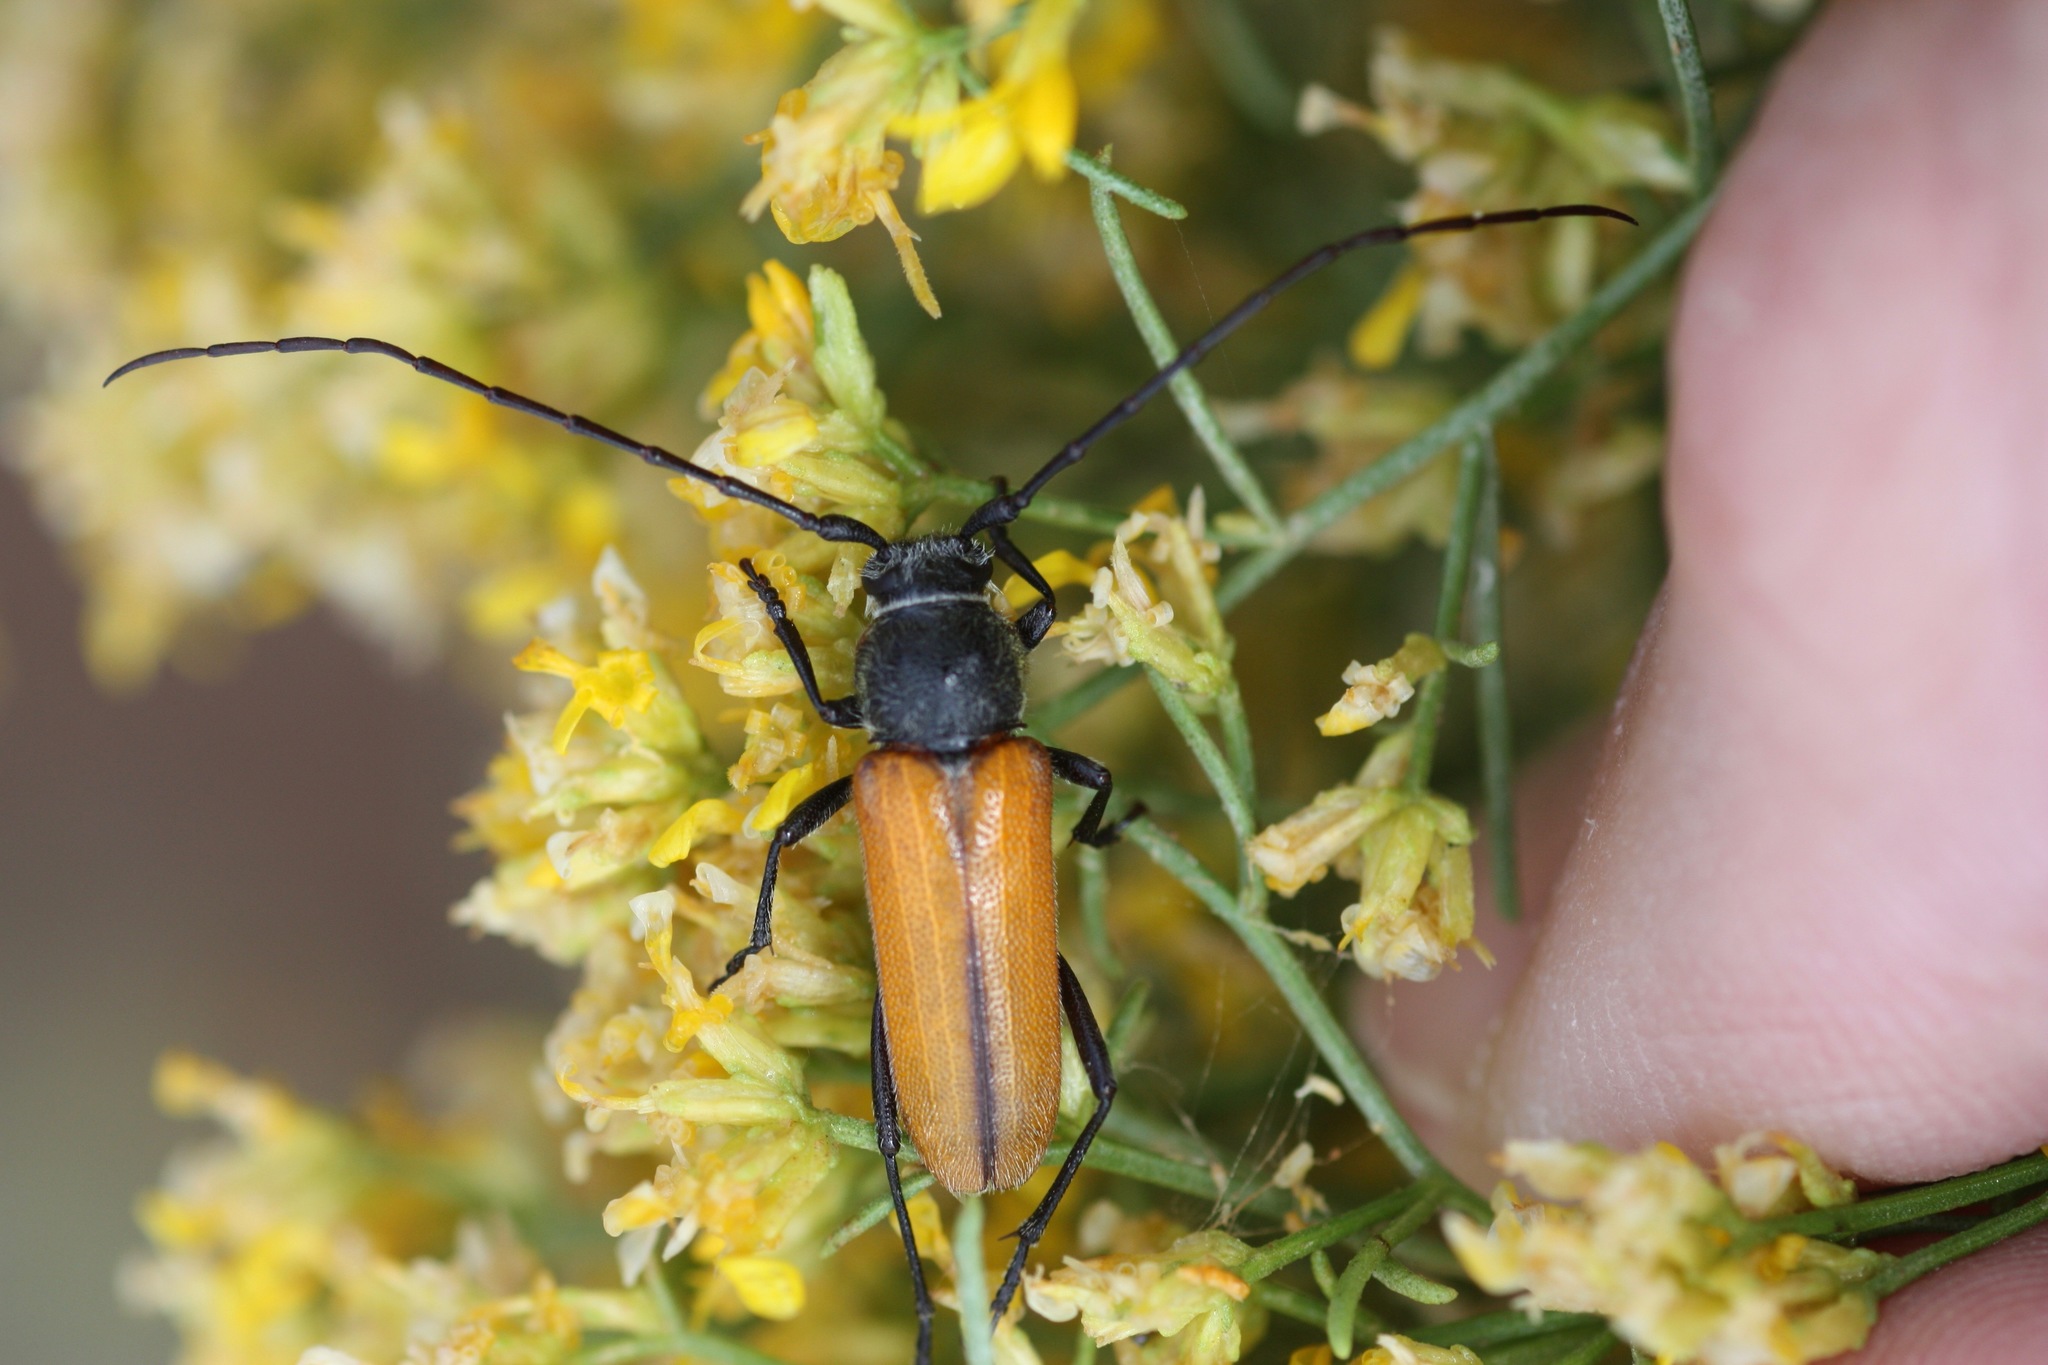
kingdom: Animalia
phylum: Arthropoda
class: Insecta
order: Coleoptera
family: Cerambycidae
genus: Crossidius
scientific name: Crossidius pulchellus
